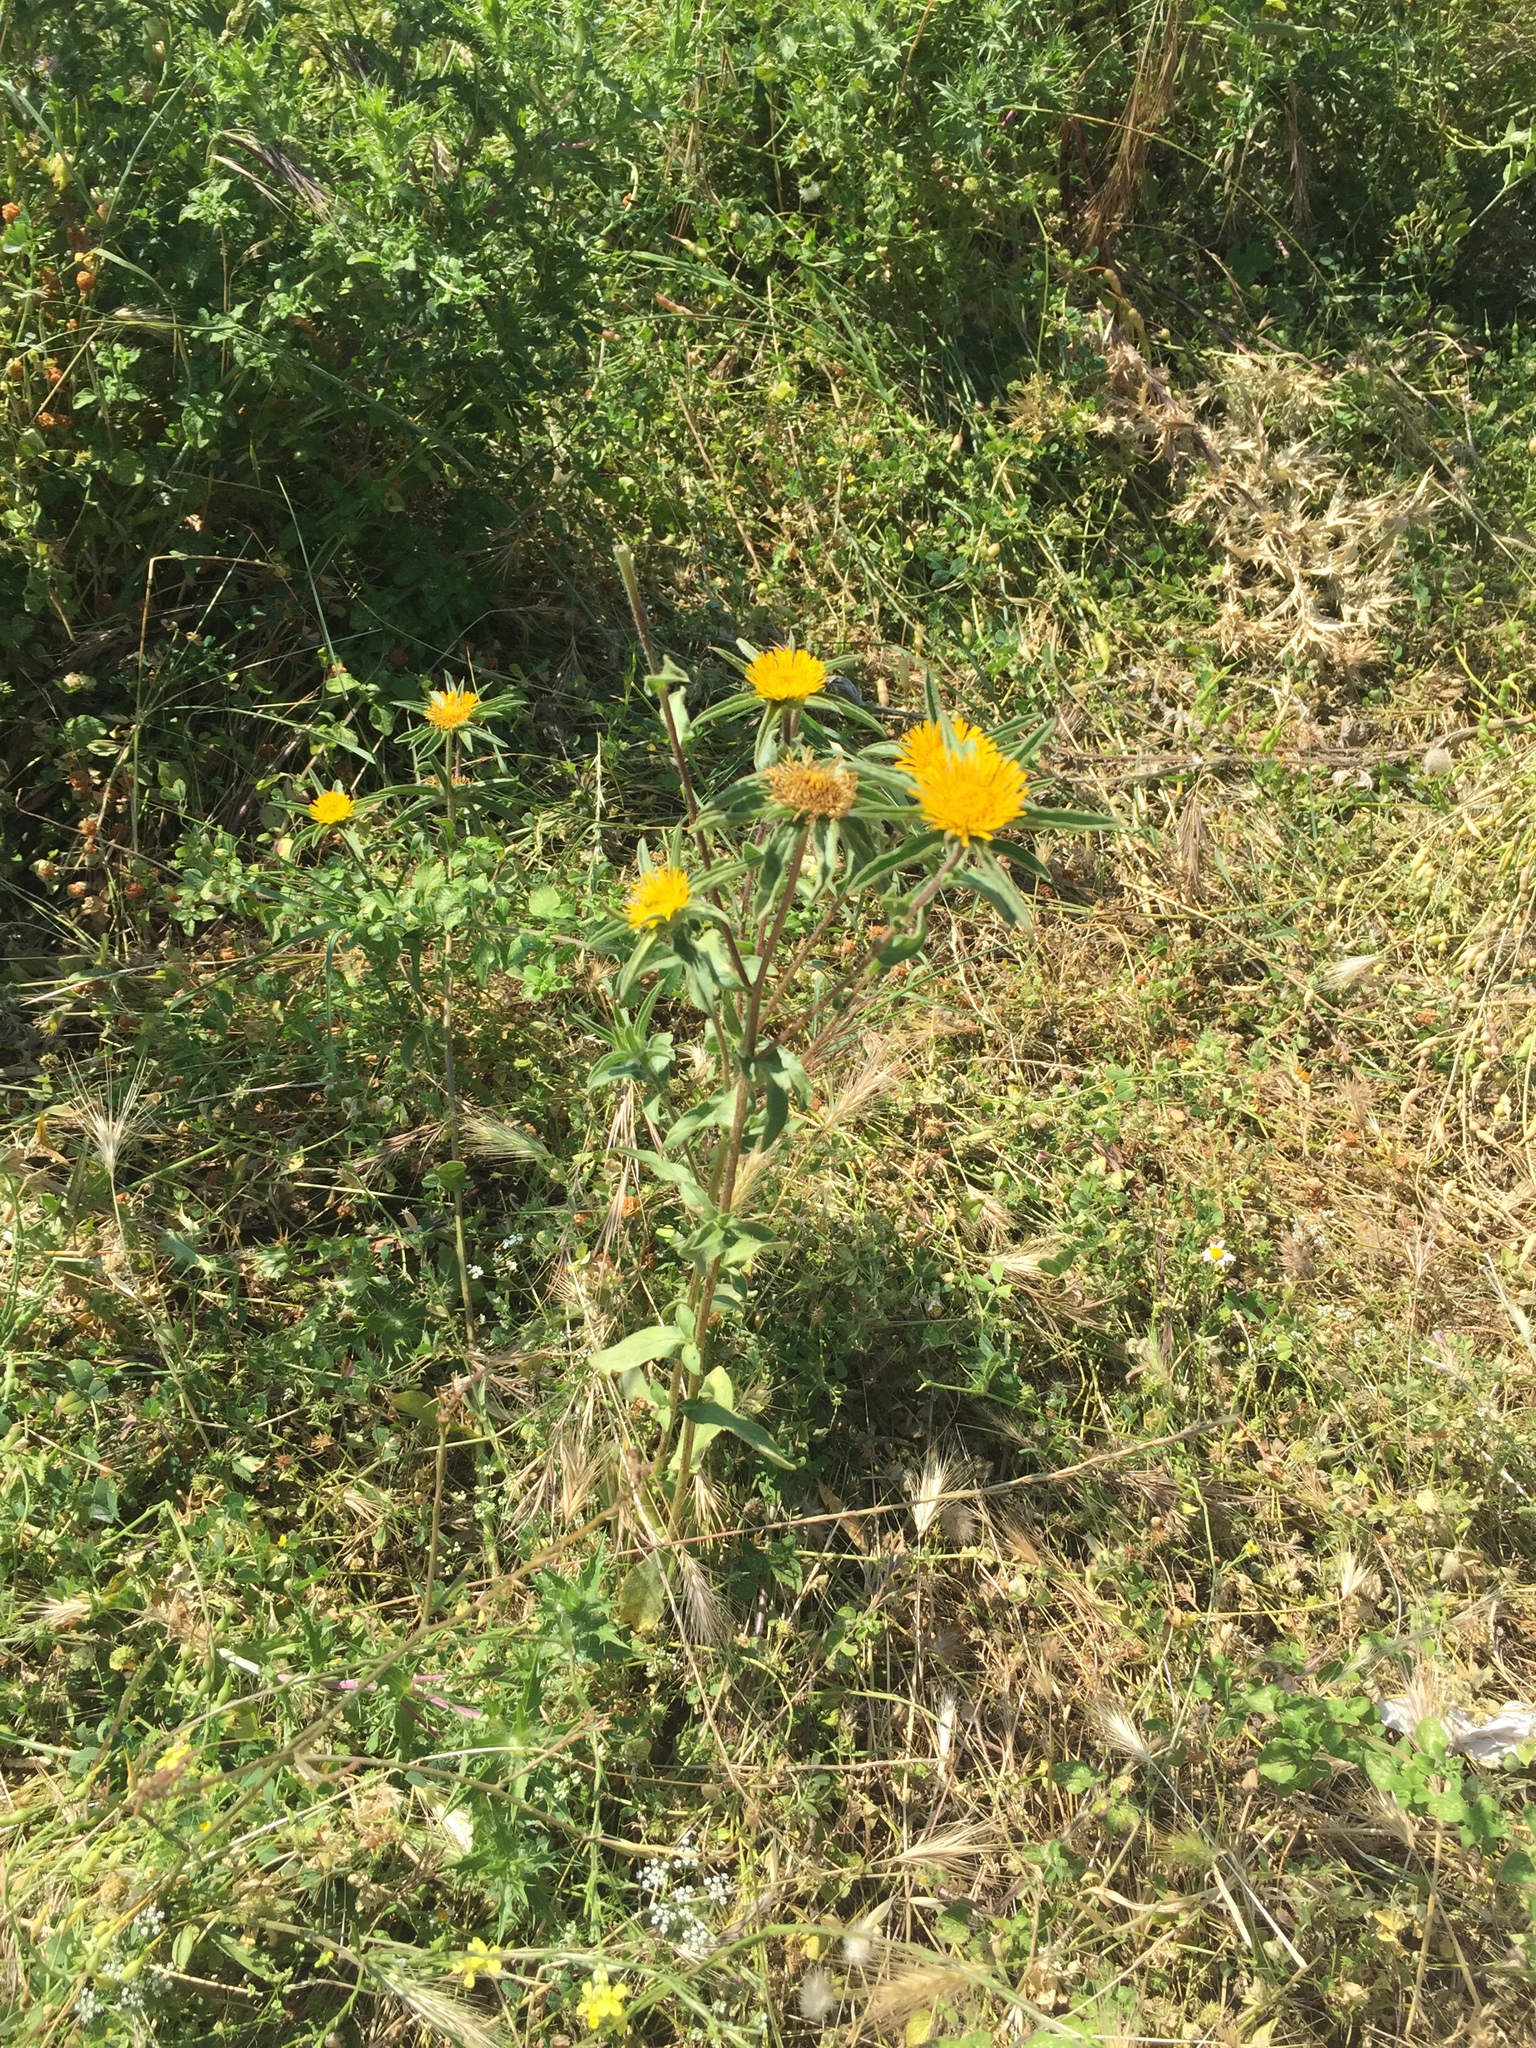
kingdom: Plantae
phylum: Tracheophyta
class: Magnoliopsida
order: Asterales
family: Asteraceae
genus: Pallenis
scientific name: Pallenis spinosa
